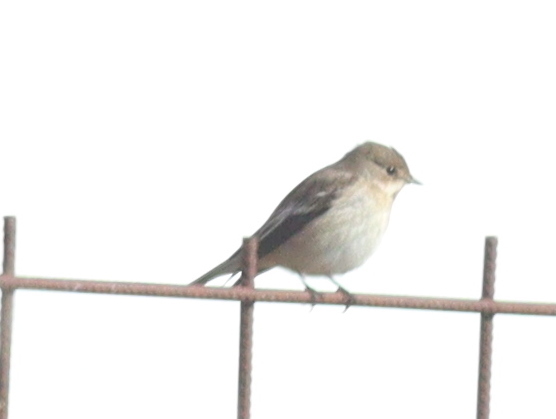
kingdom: Animalia
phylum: Chordata
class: Aves
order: Passeriformes
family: Muscicapidae
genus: Ficedula
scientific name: Ficedula hypoleuca
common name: European pied flycatcher
